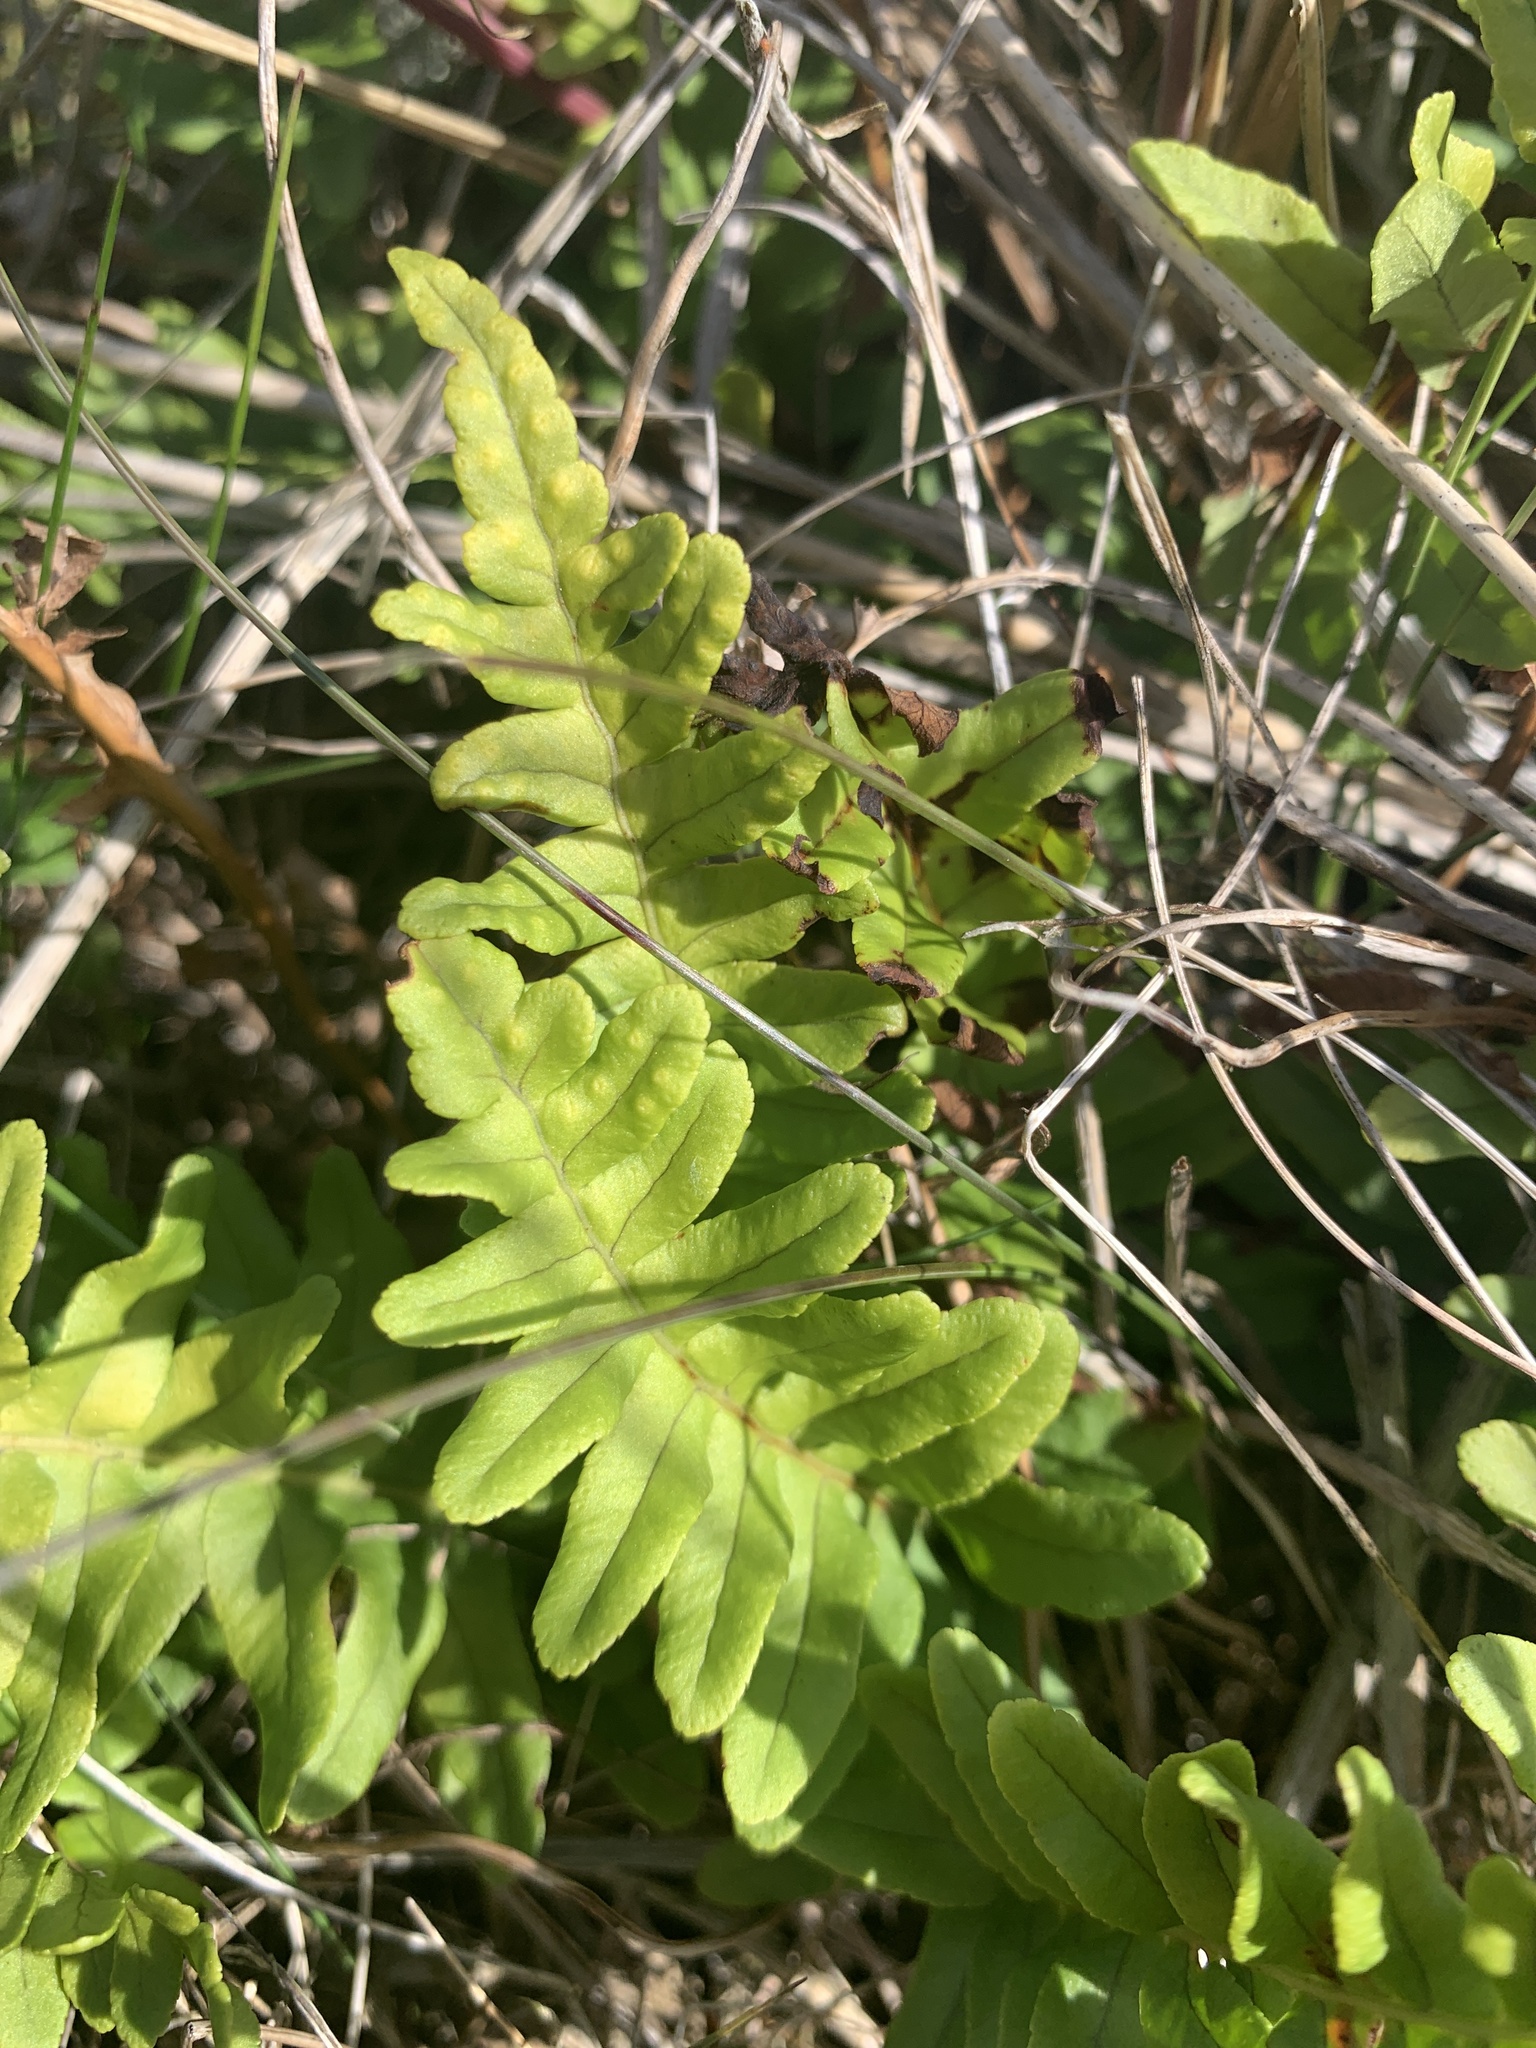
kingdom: Plantae
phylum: Tracheophyta
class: Polypodiopsida
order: Polypodiales
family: Polypodiaceae
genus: Polypodium
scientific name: Polypodium vulgare
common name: Common polypody
